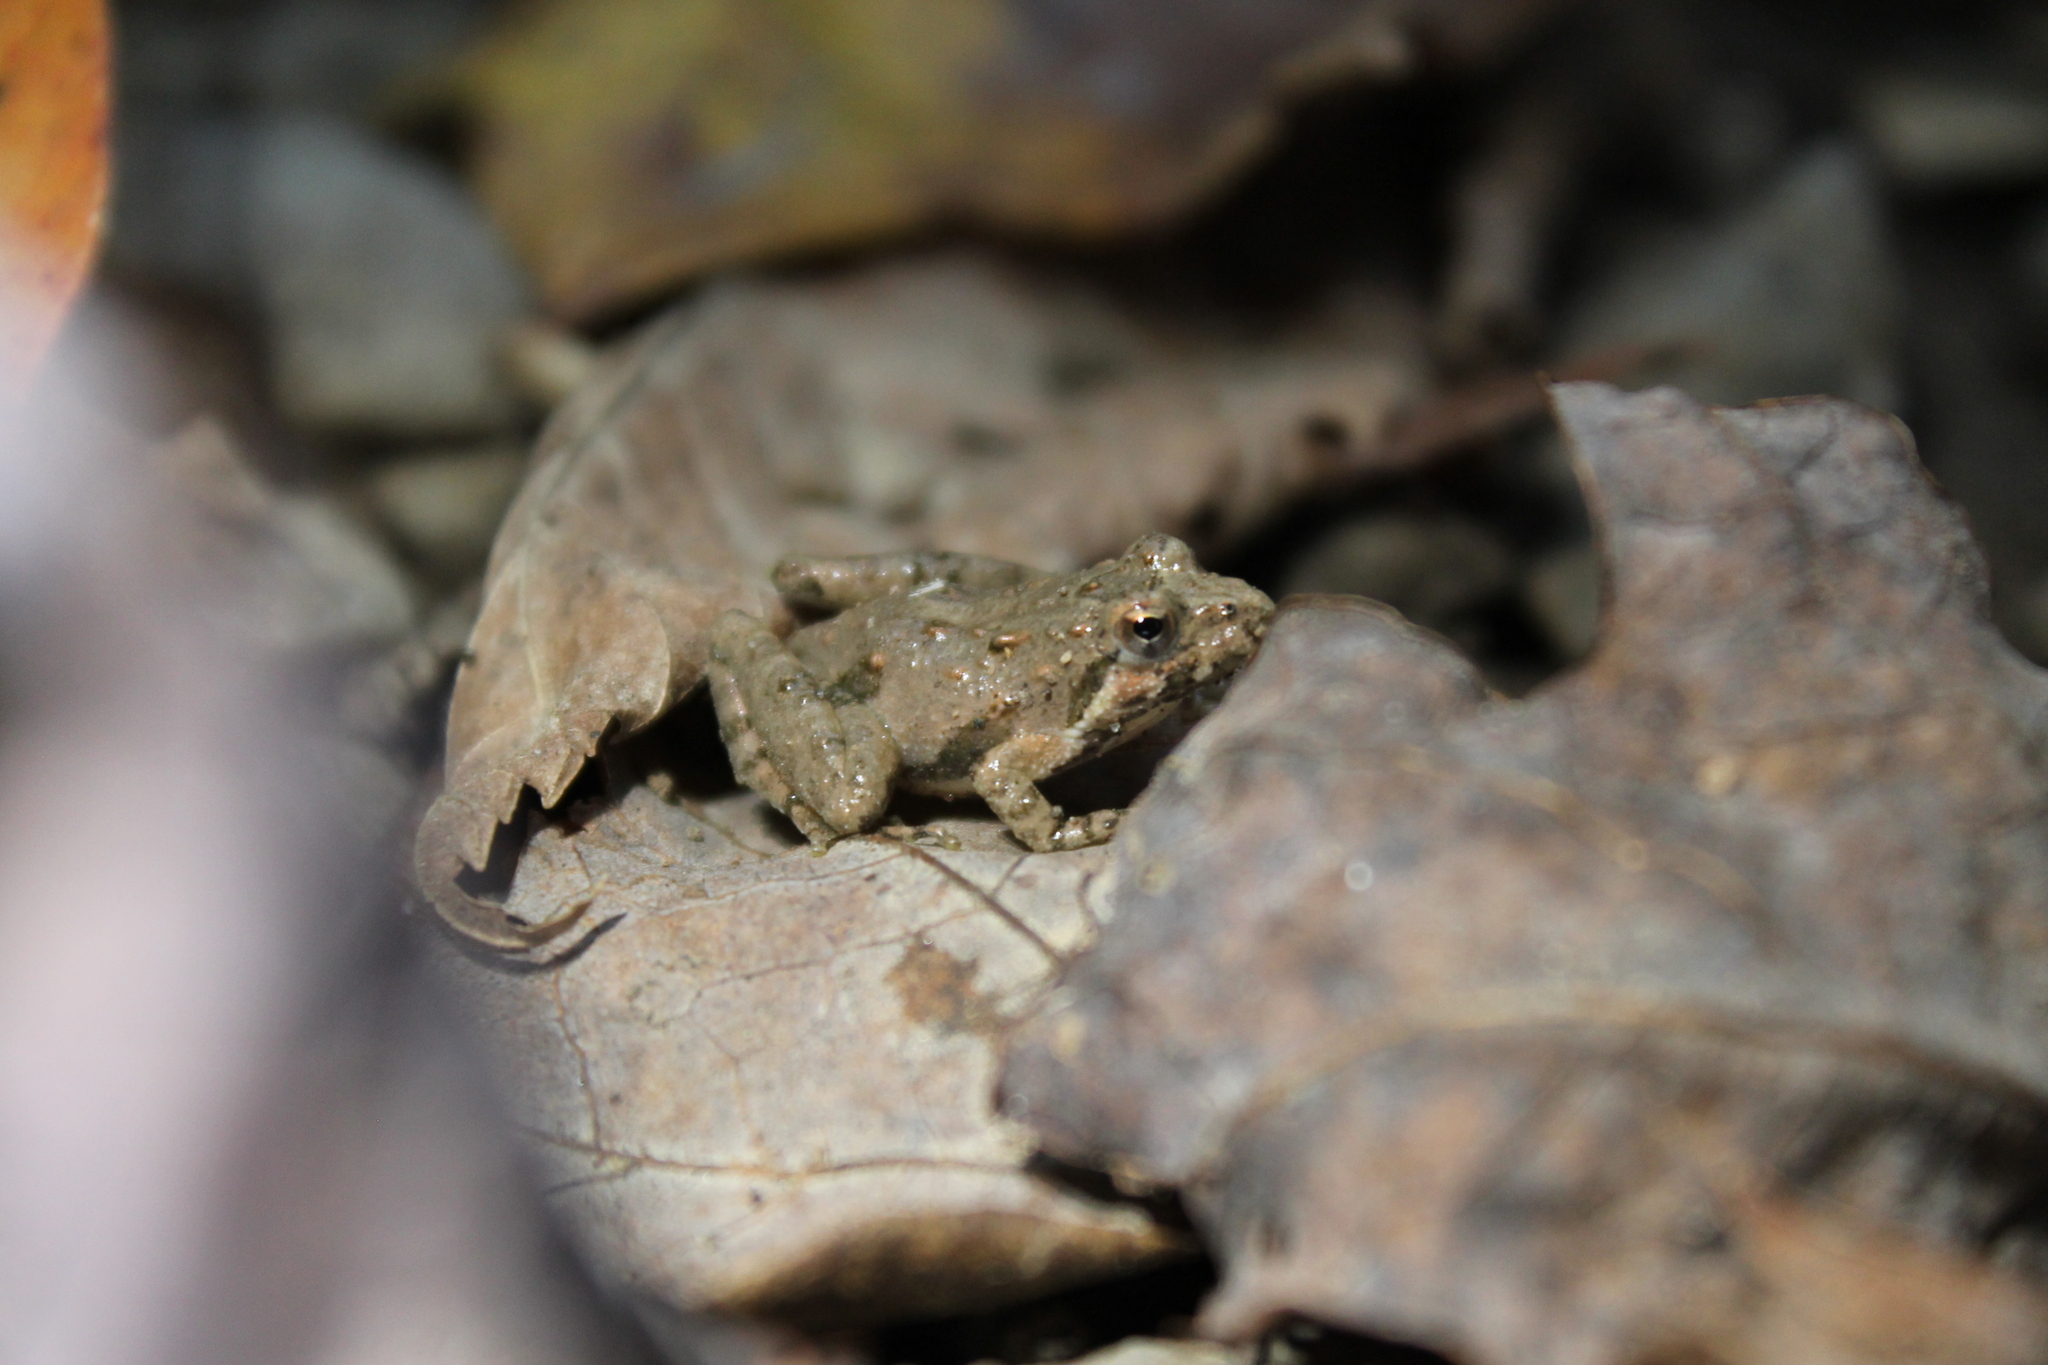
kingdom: Animalia
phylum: Chordata
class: Amphibia
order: Anura
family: Hylidae
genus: Acris
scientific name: Acris crepitans
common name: Northern cricket frog
